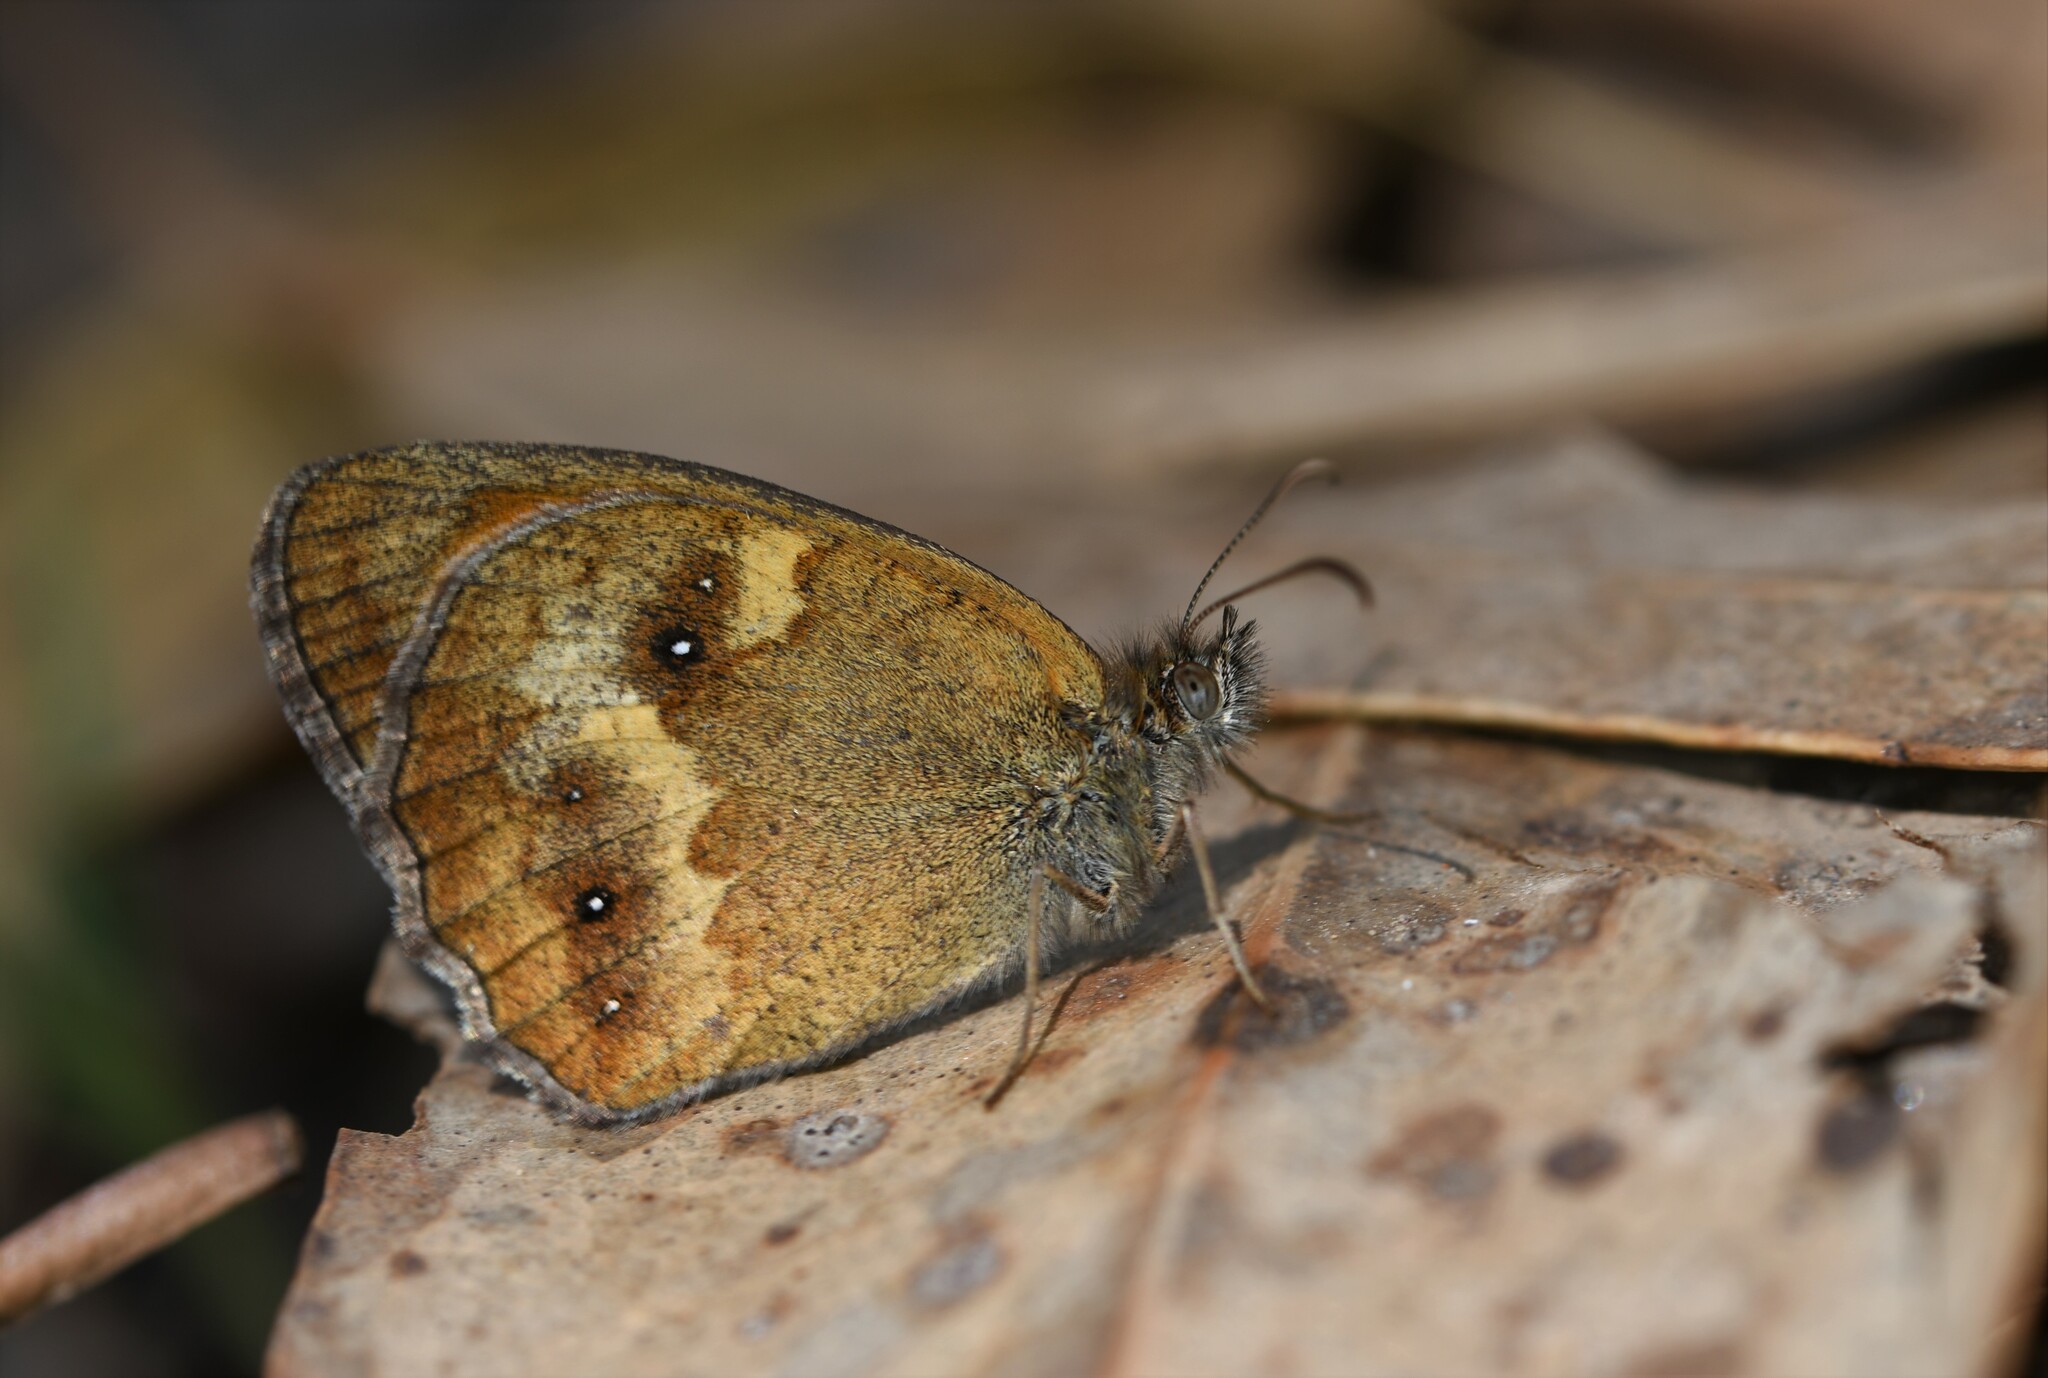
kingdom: Animalia
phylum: Arthropoda
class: Insecta
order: Lepidoptera
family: Nymphalidae
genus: Pyronia
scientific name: Pyronia tithonus
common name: Gatekeeper
